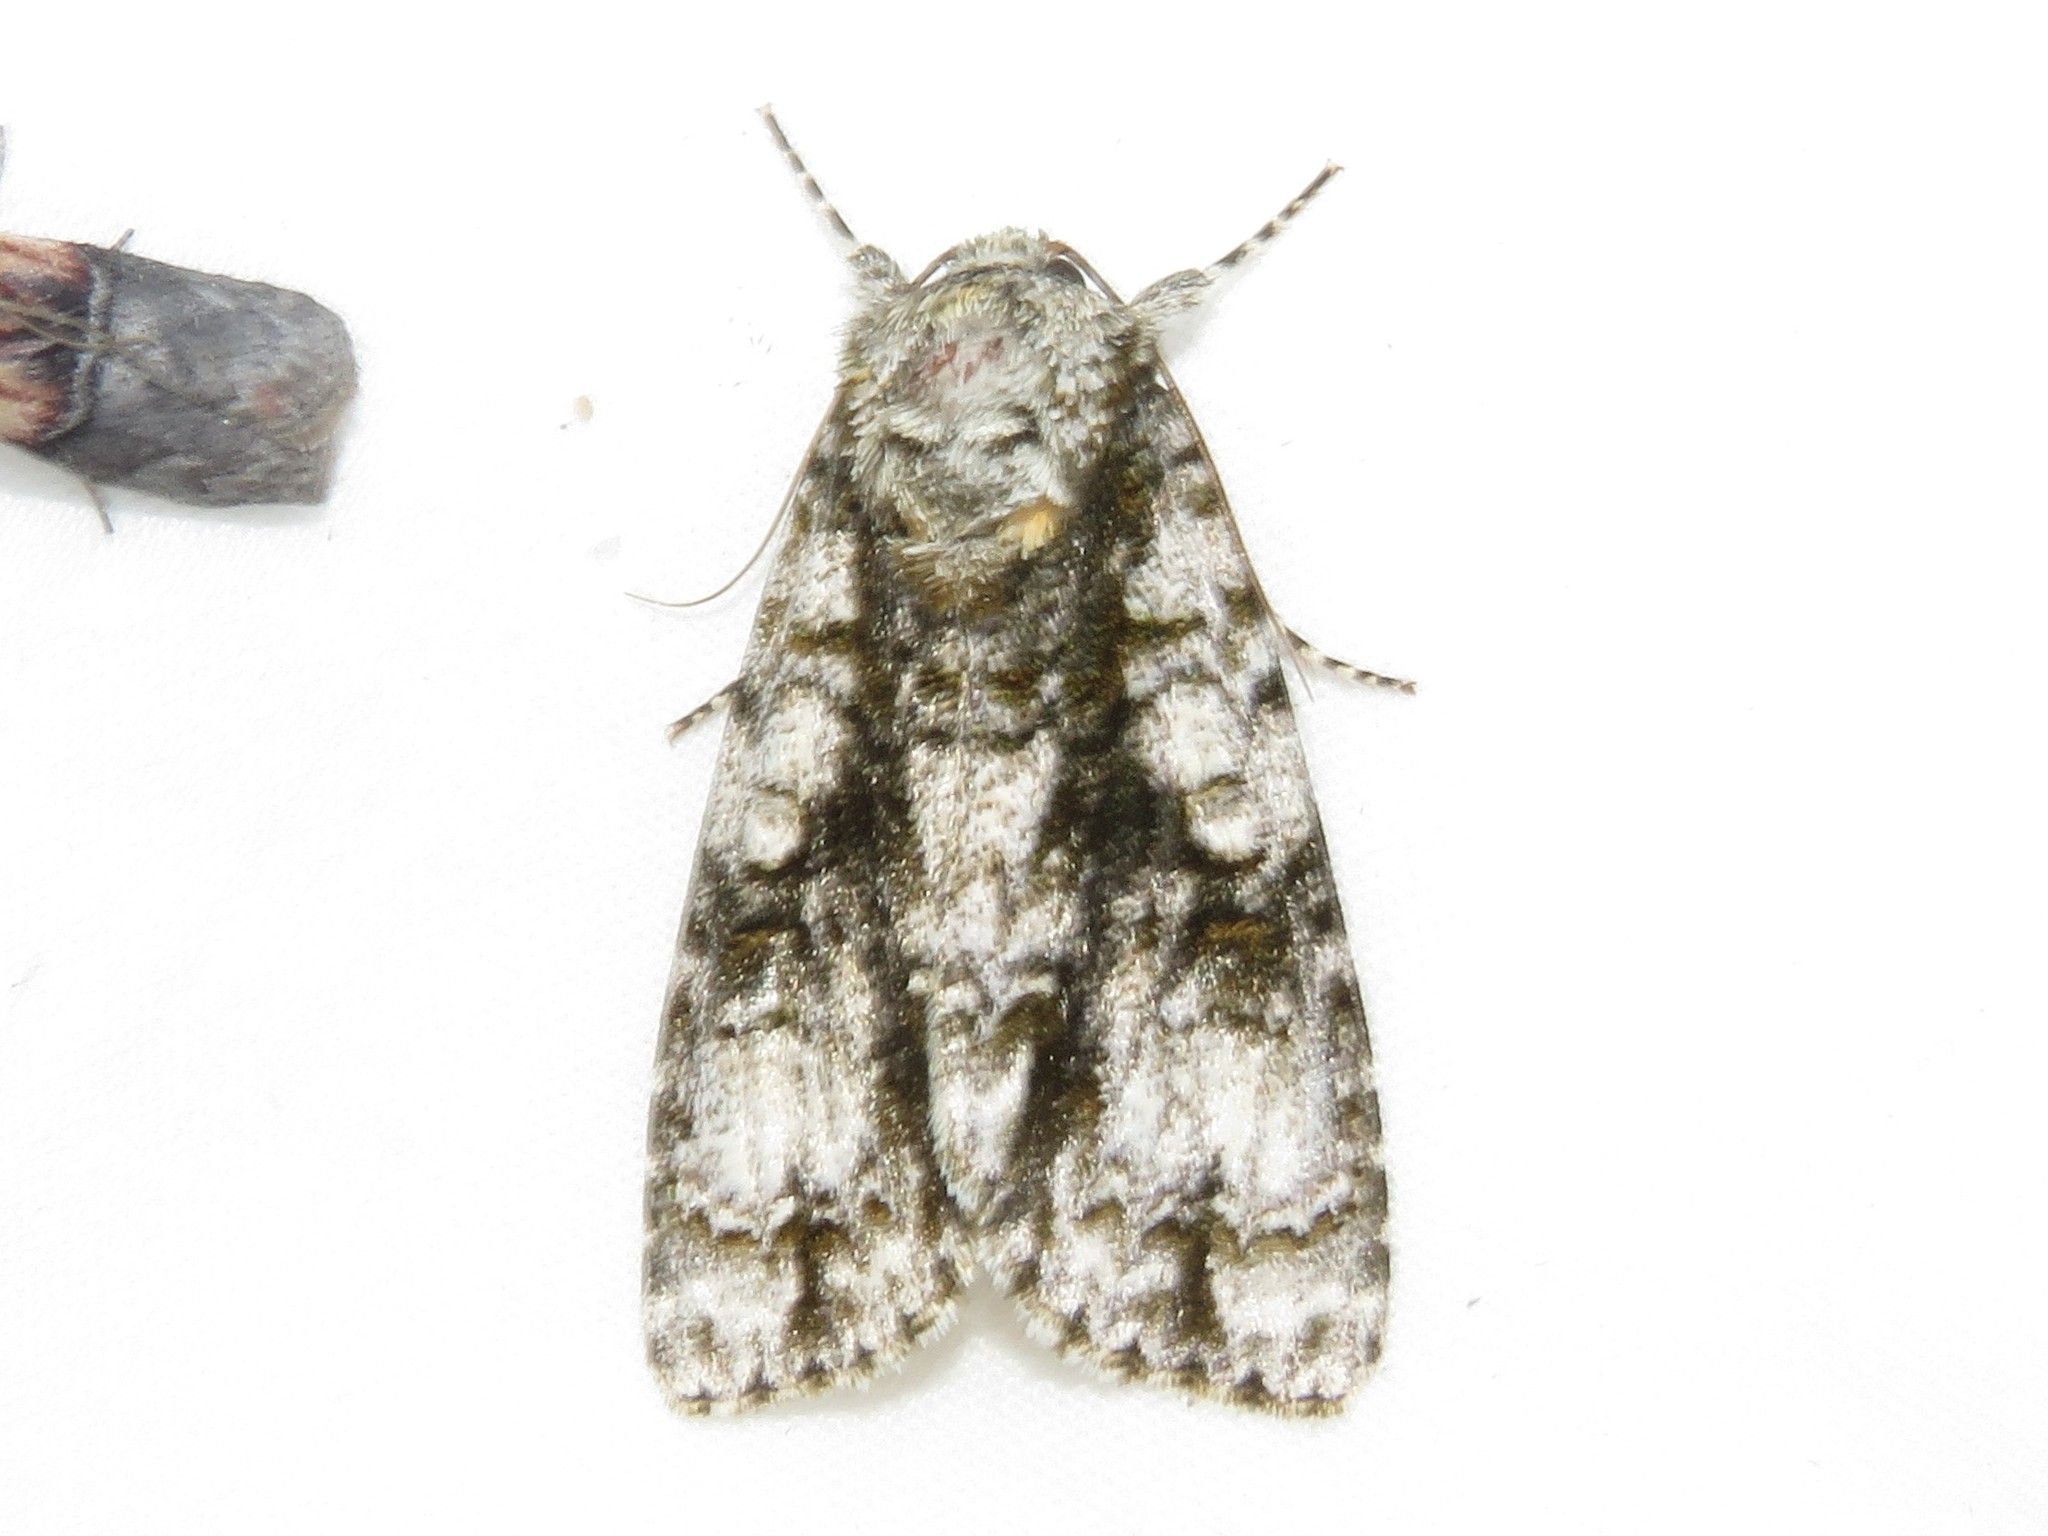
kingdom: Animalia
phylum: Arthropoda
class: Insecta
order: Lepidoptera
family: Noctuidae
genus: Acronicta
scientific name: Acronicta superans
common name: Splendid dagger
